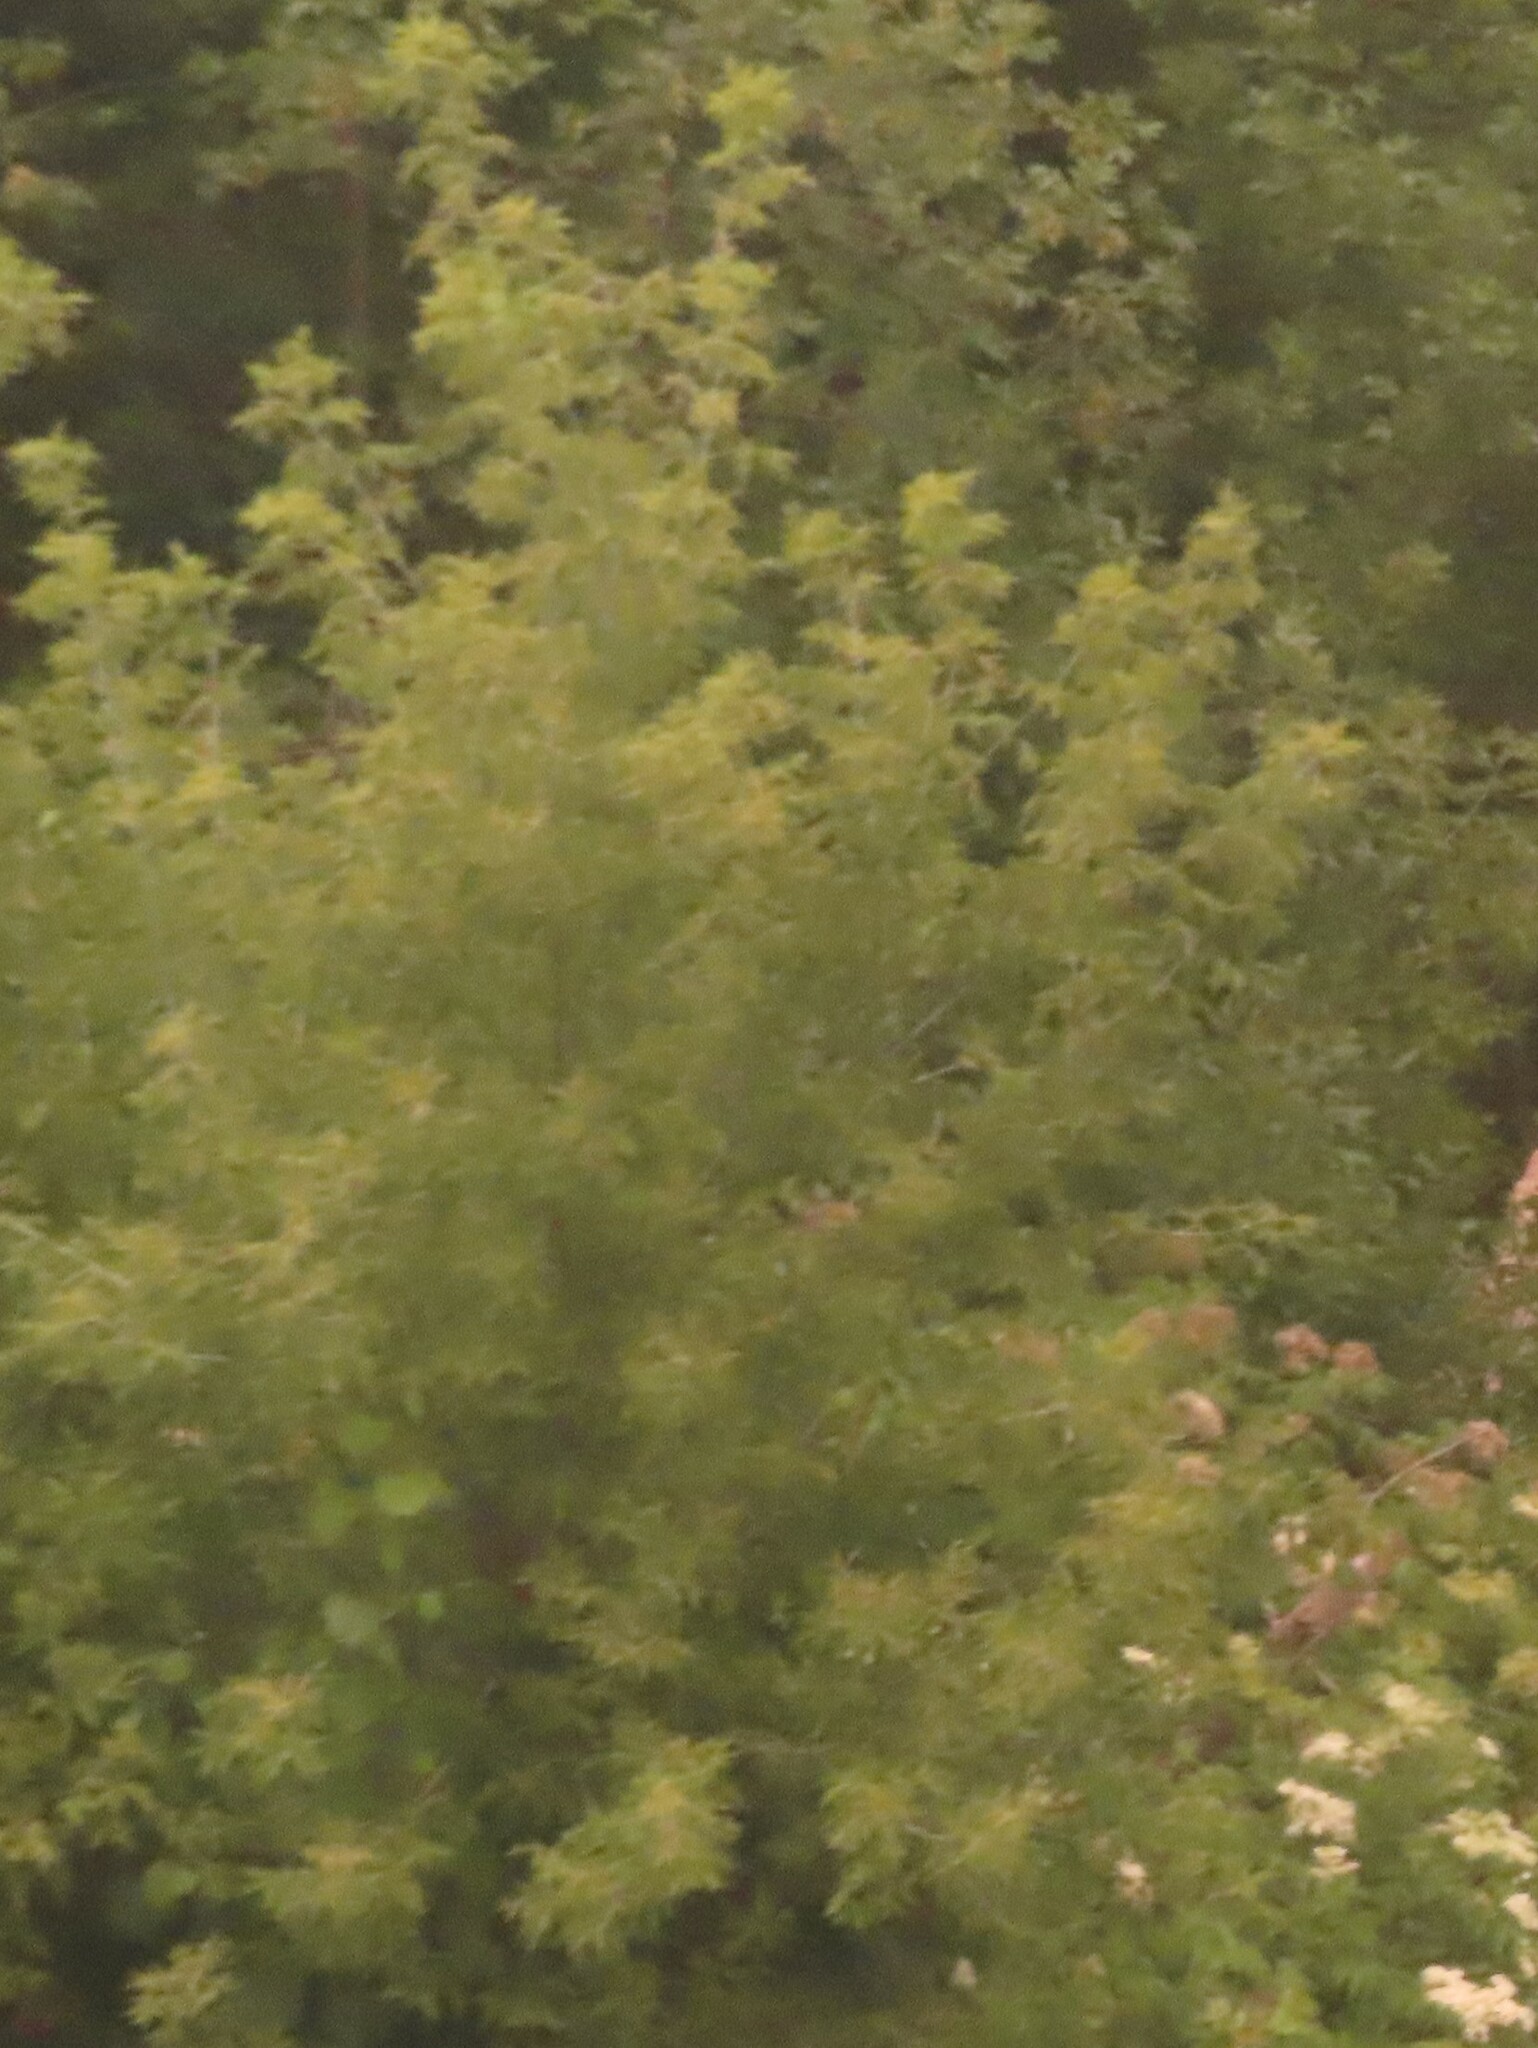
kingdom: Plantae
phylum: Tracheophyta
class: Magnoliopsida
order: Sapindales
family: Sapindaceae
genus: Acer
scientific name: Acer negundo
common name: Ashleaf maple
